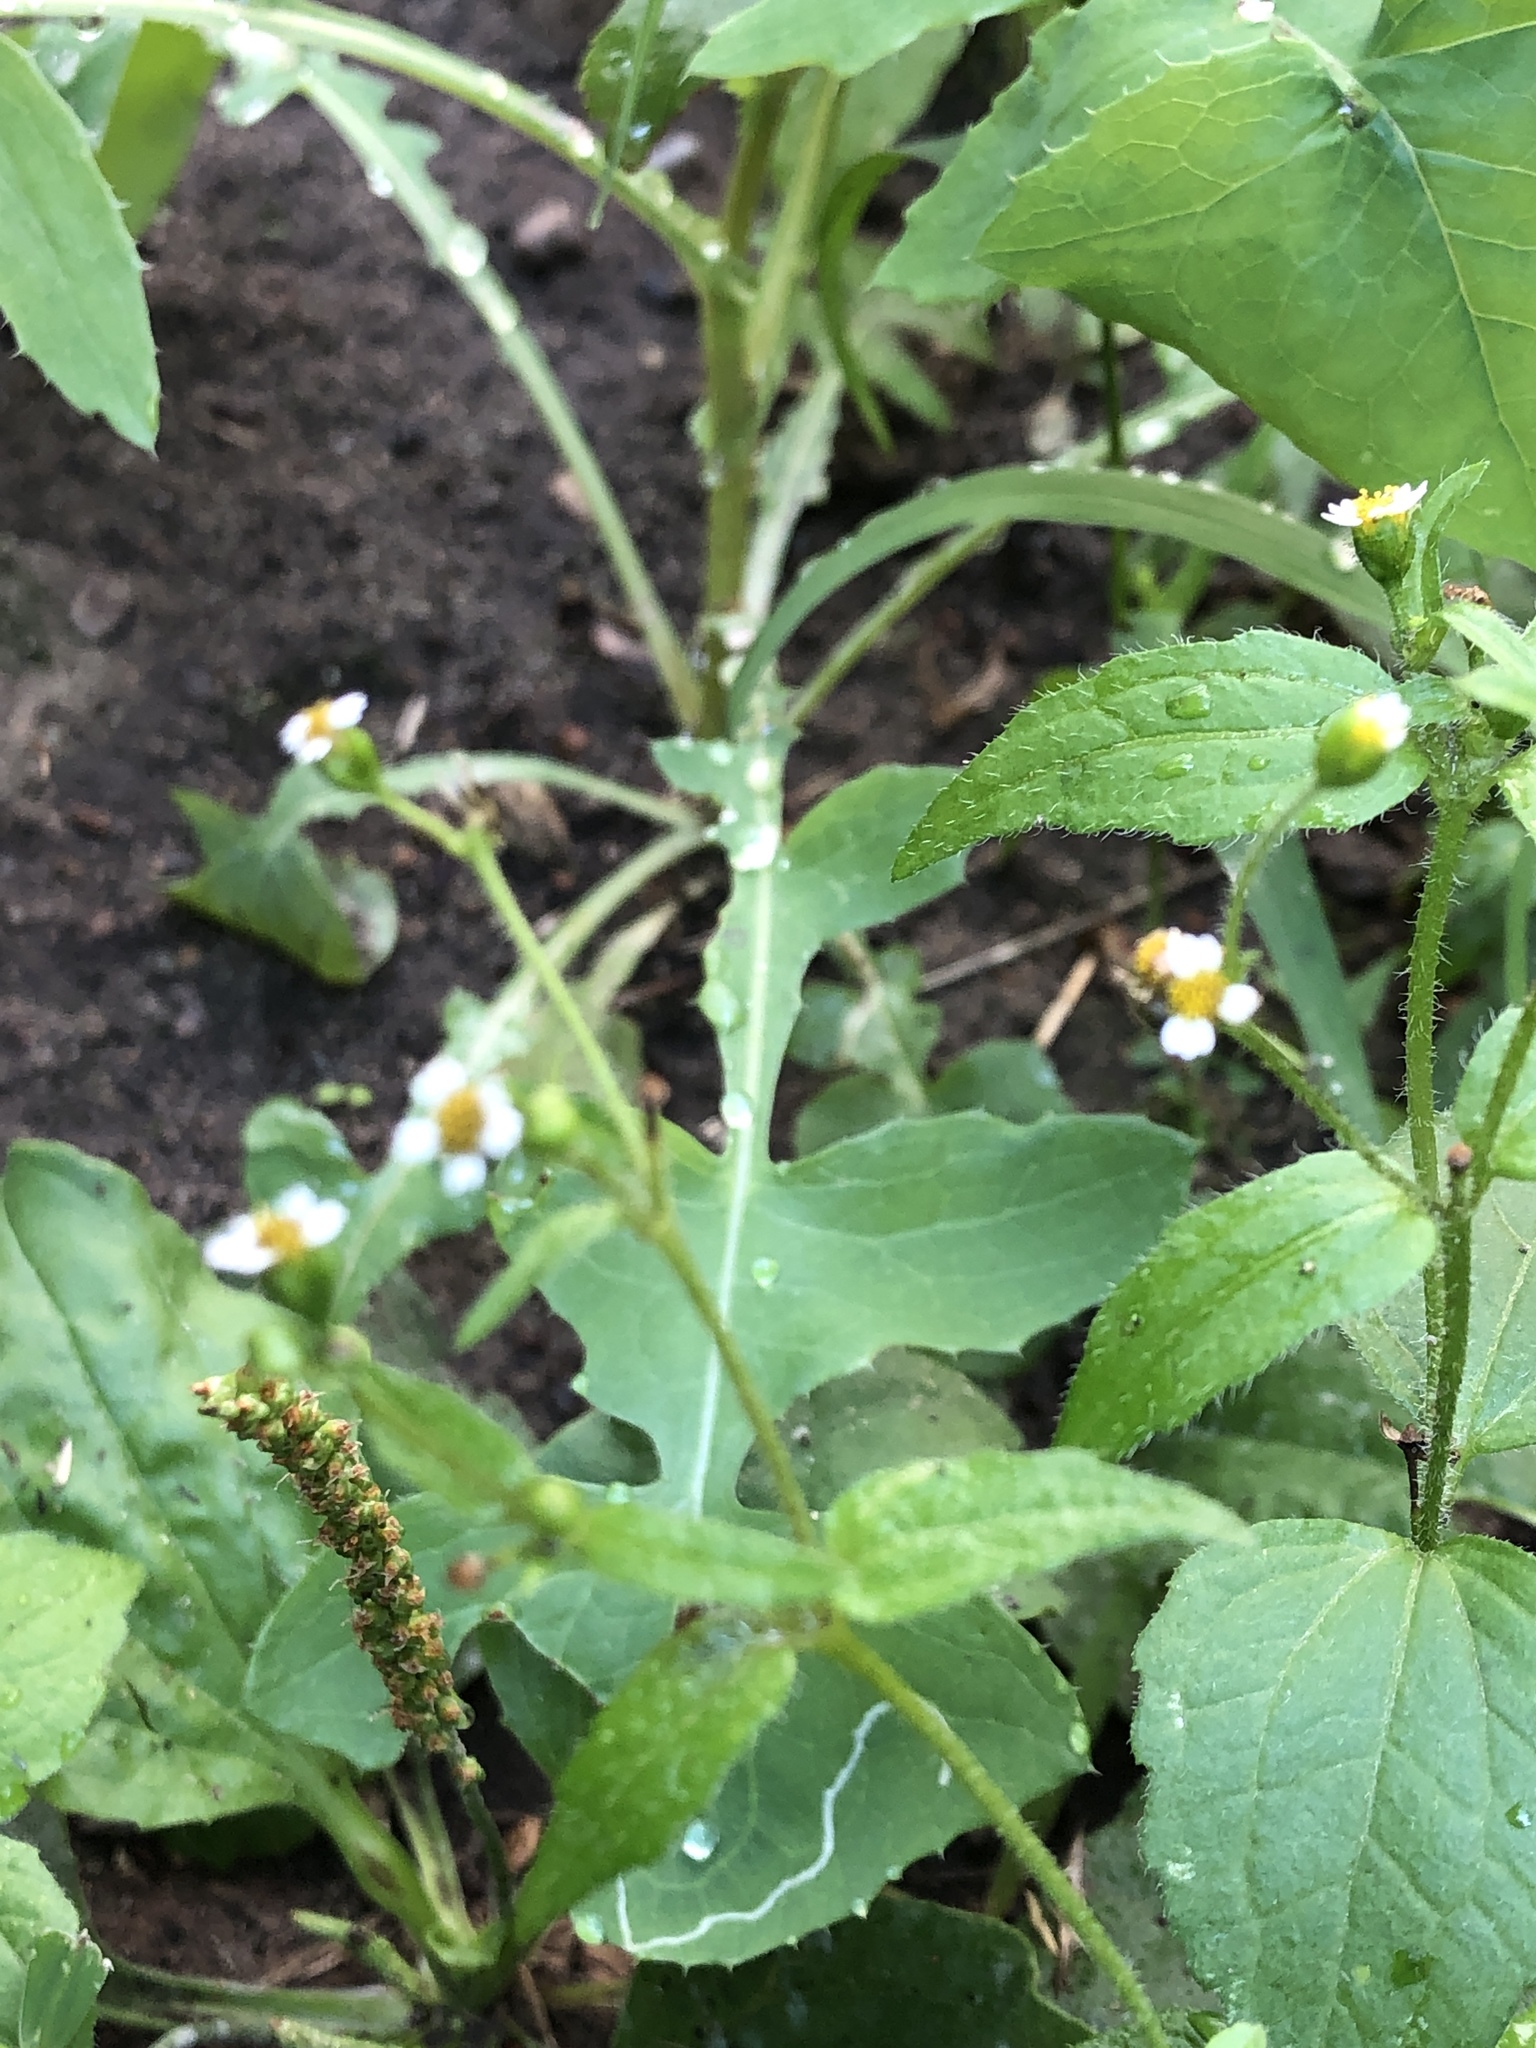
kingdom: Plantae
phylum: Tracheophyta
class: Magnoliopsida
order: Asterales
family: Asteraceae
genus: Galinsoga
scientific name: Galinsoga quadriradiata
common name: Shaggy soldier
